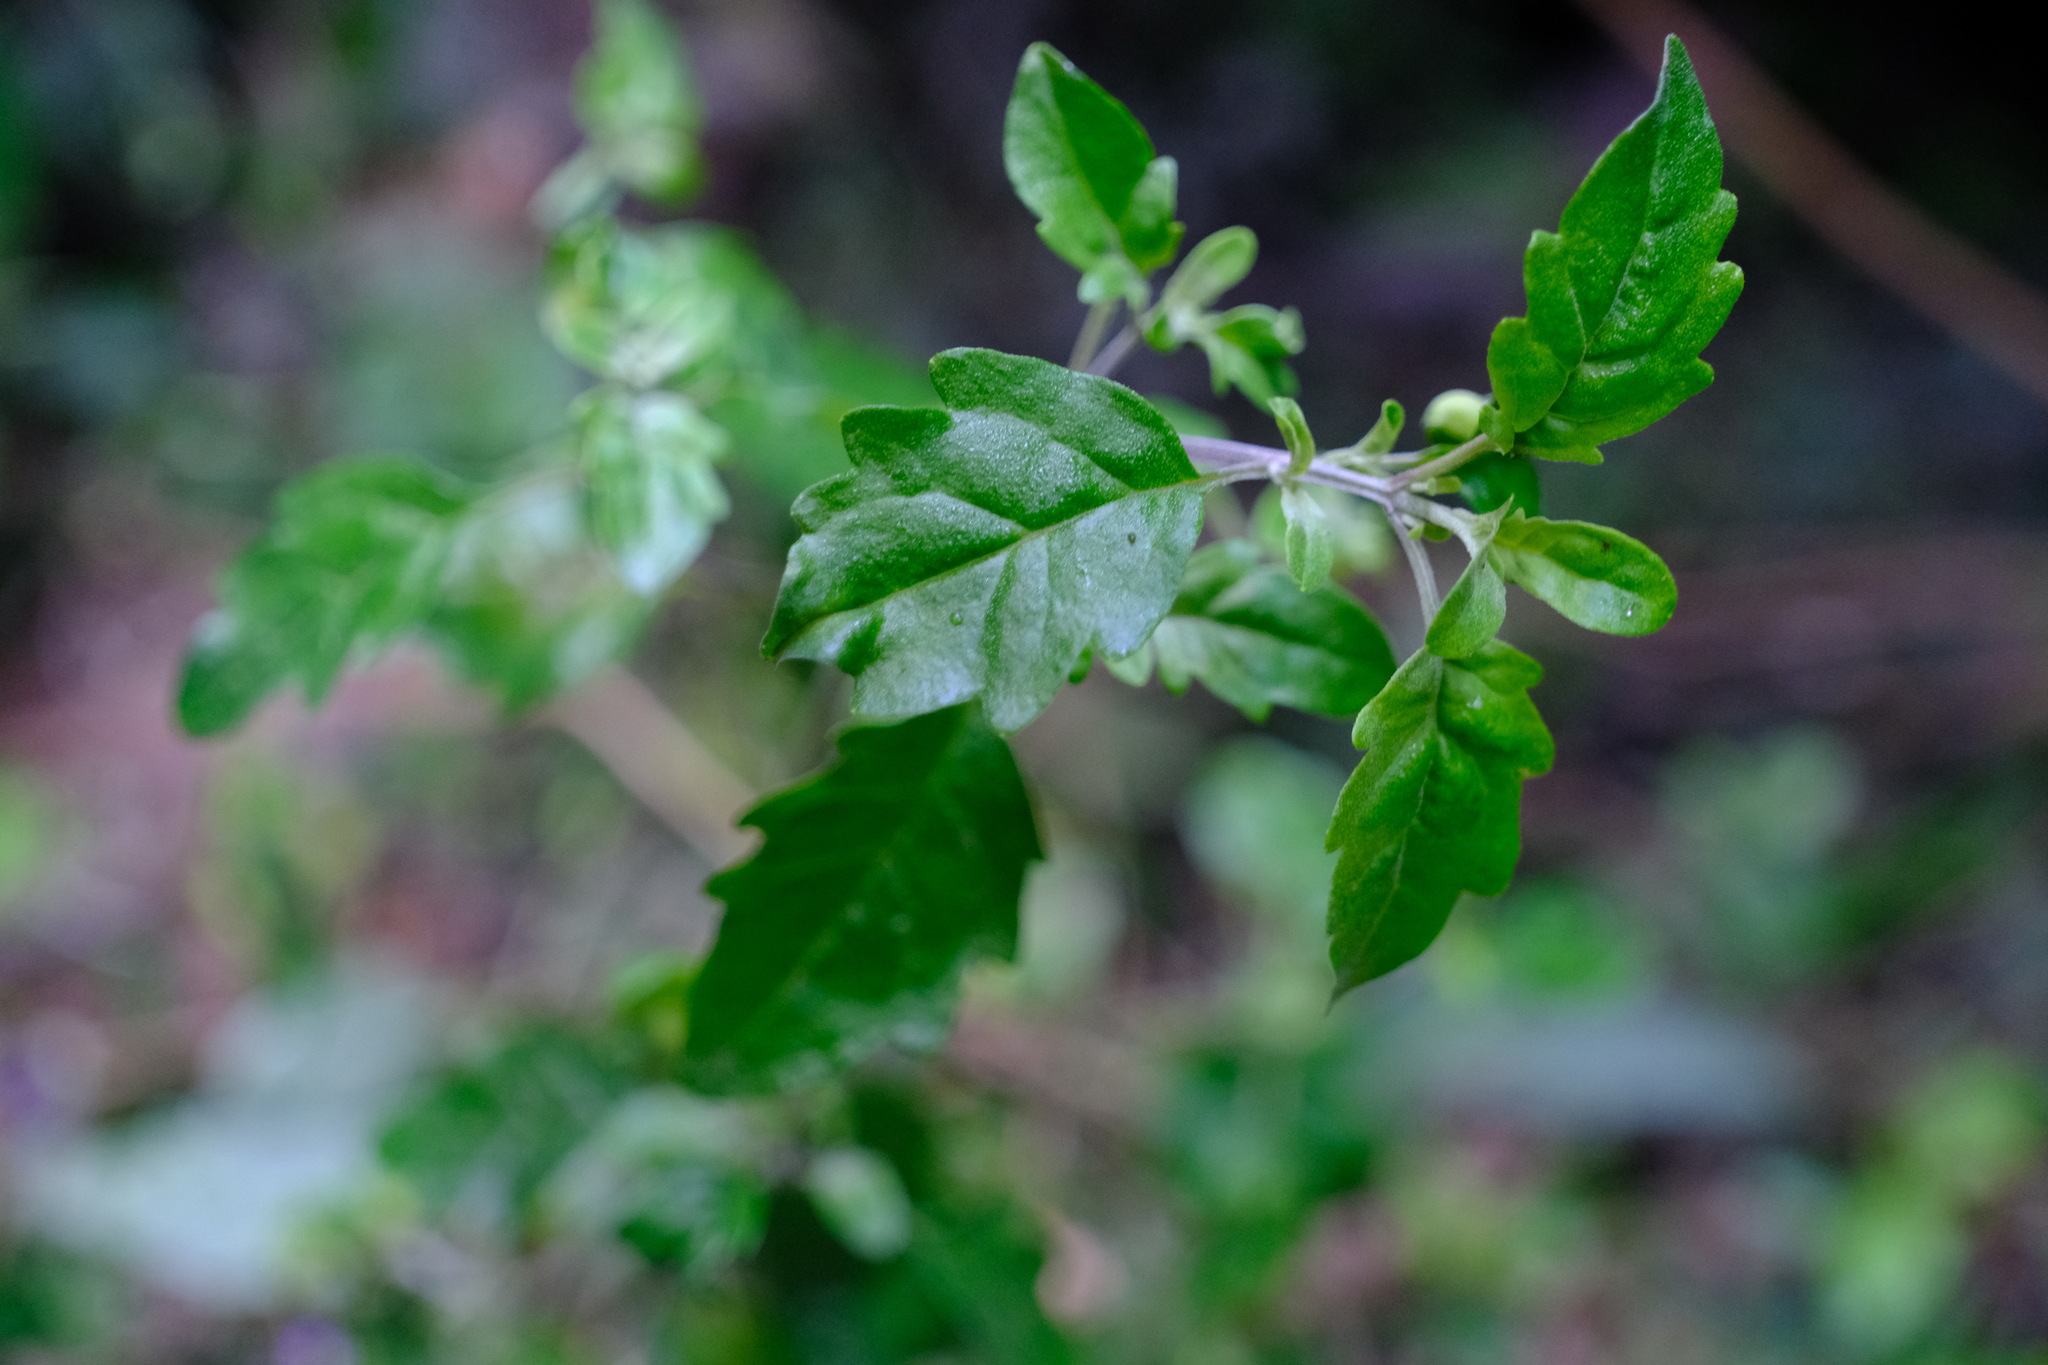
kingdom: Plantae
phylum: Tracheophyta
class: Magnoliopsida
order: Lamiales
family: Lamiaceae
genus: Prostanthera
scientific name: Prostanthera melissifolia
